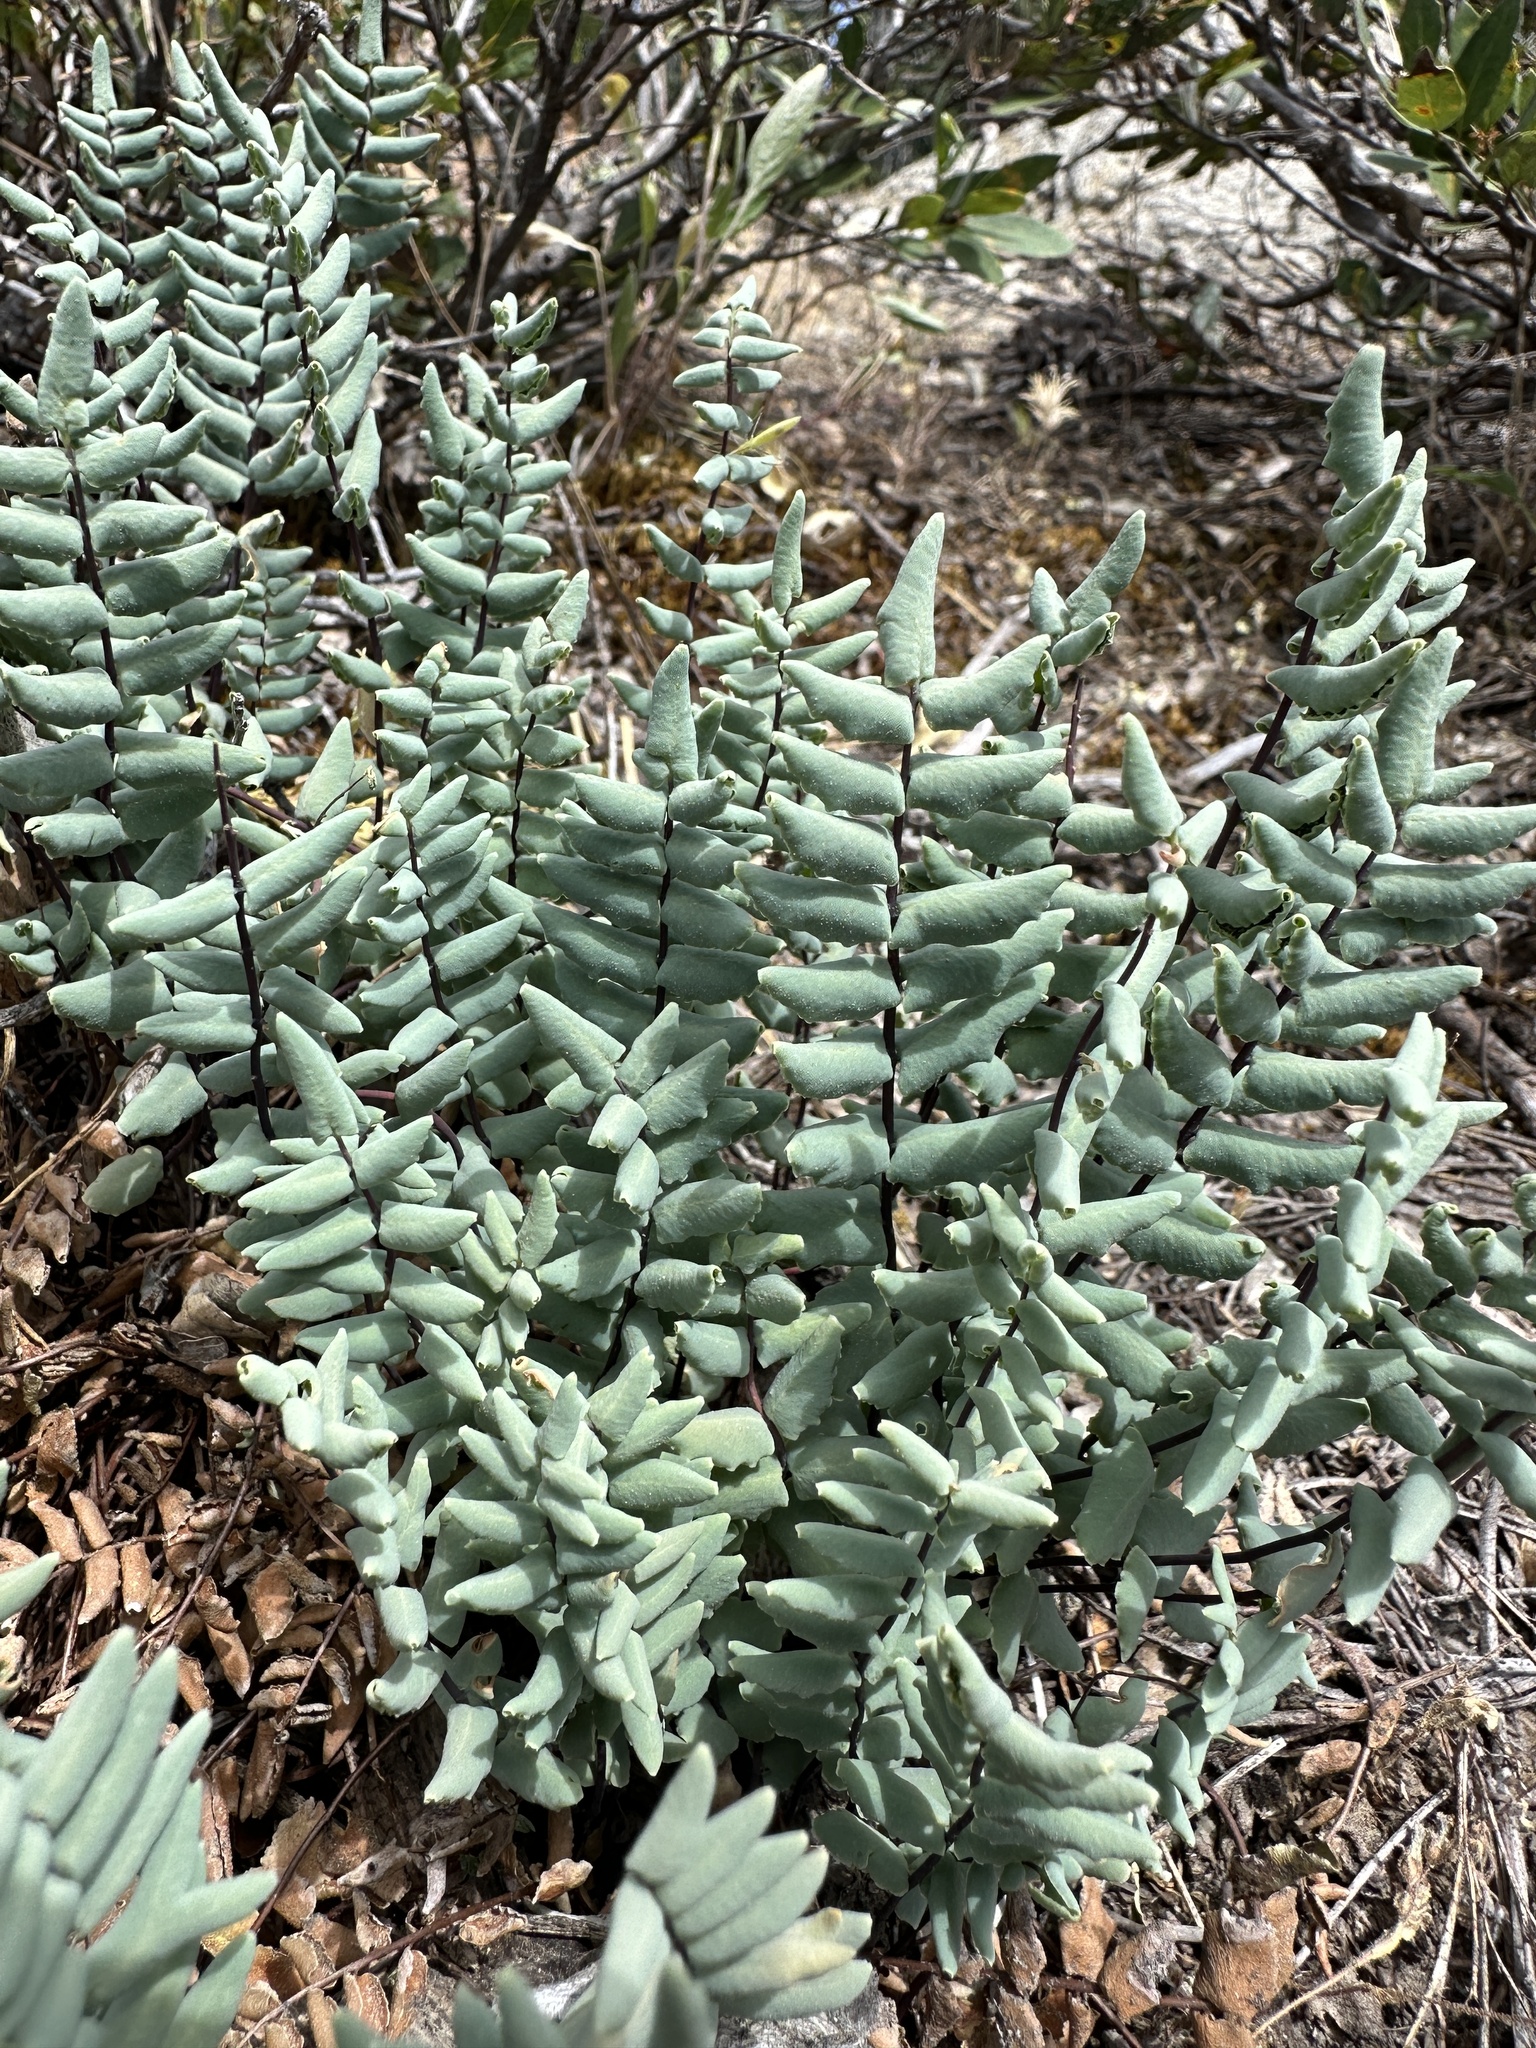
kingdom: Plantae
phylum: Tracheophyta
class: Polypodiopsida
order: Polypodiales
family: Pteridaceae
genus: Pellaea
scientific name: Pellaea bridgesii
